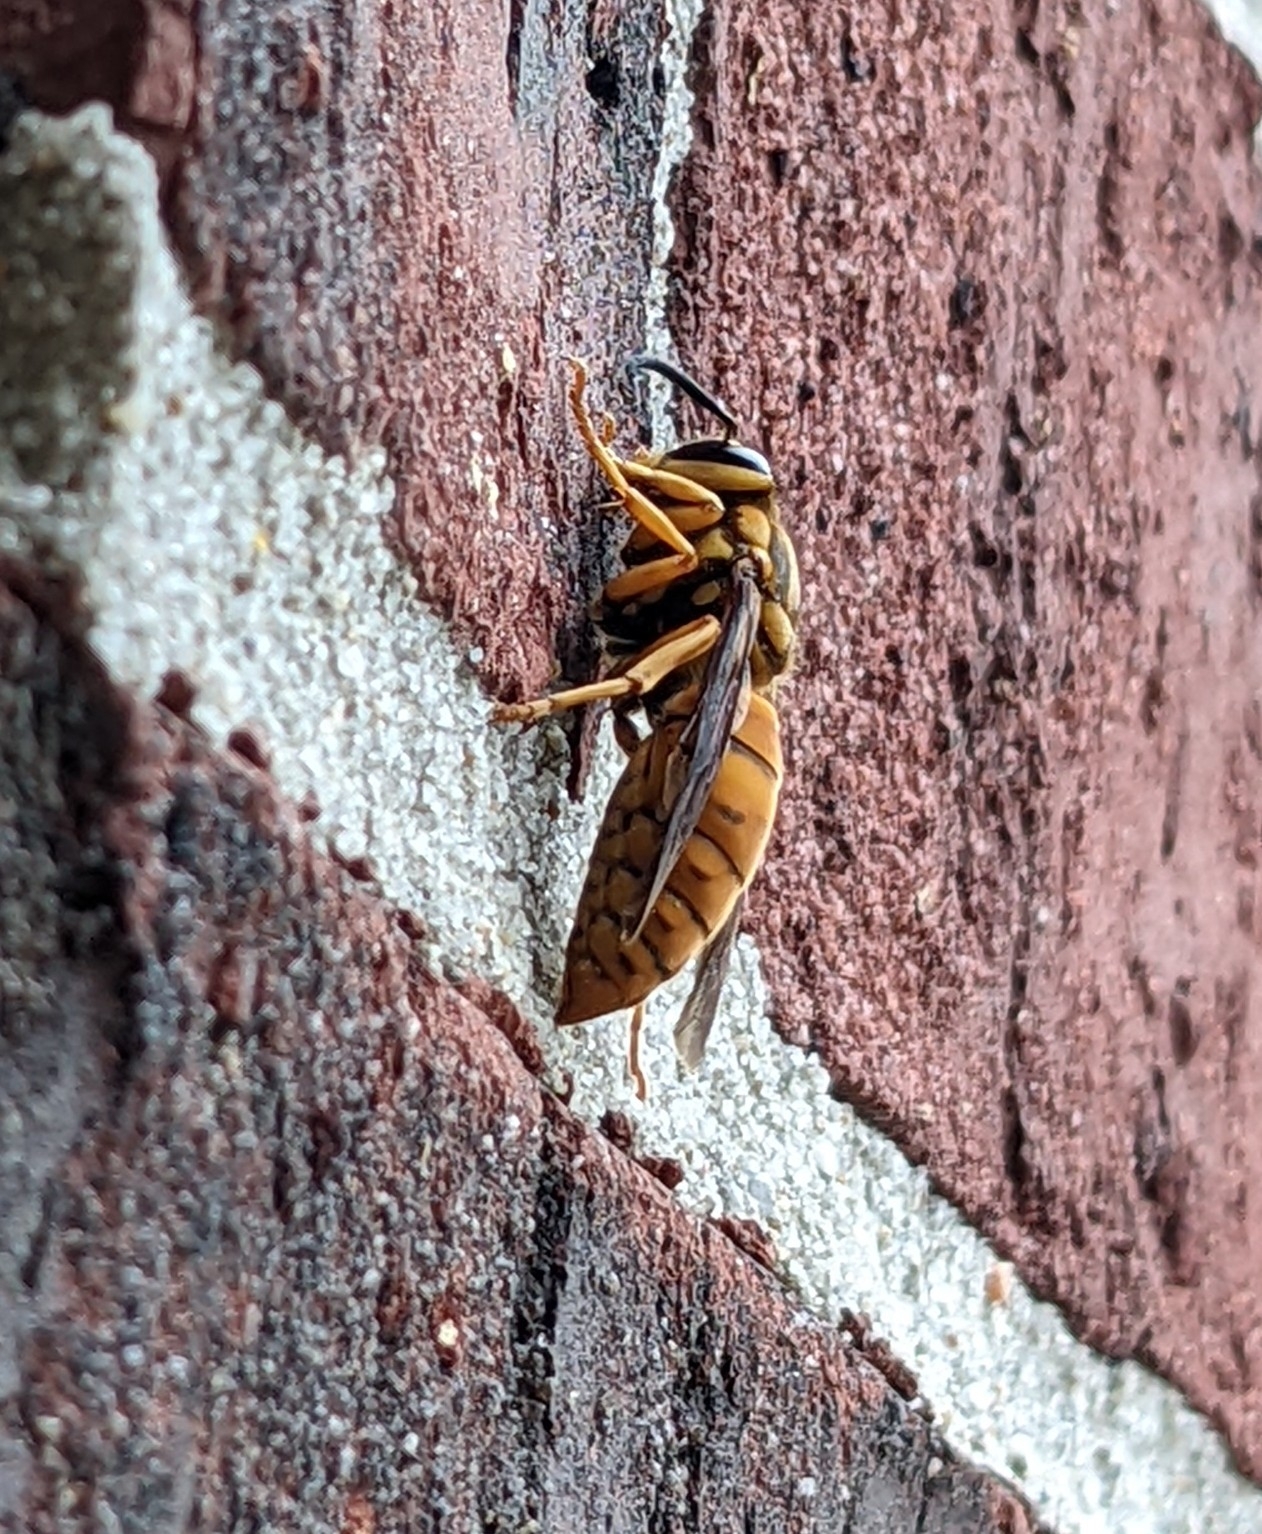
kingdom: Animalia
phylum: Arthropoda
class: Insecta
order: Hymenoptera
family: Vespidae
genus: Vespula
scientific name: Vespula squamosa
